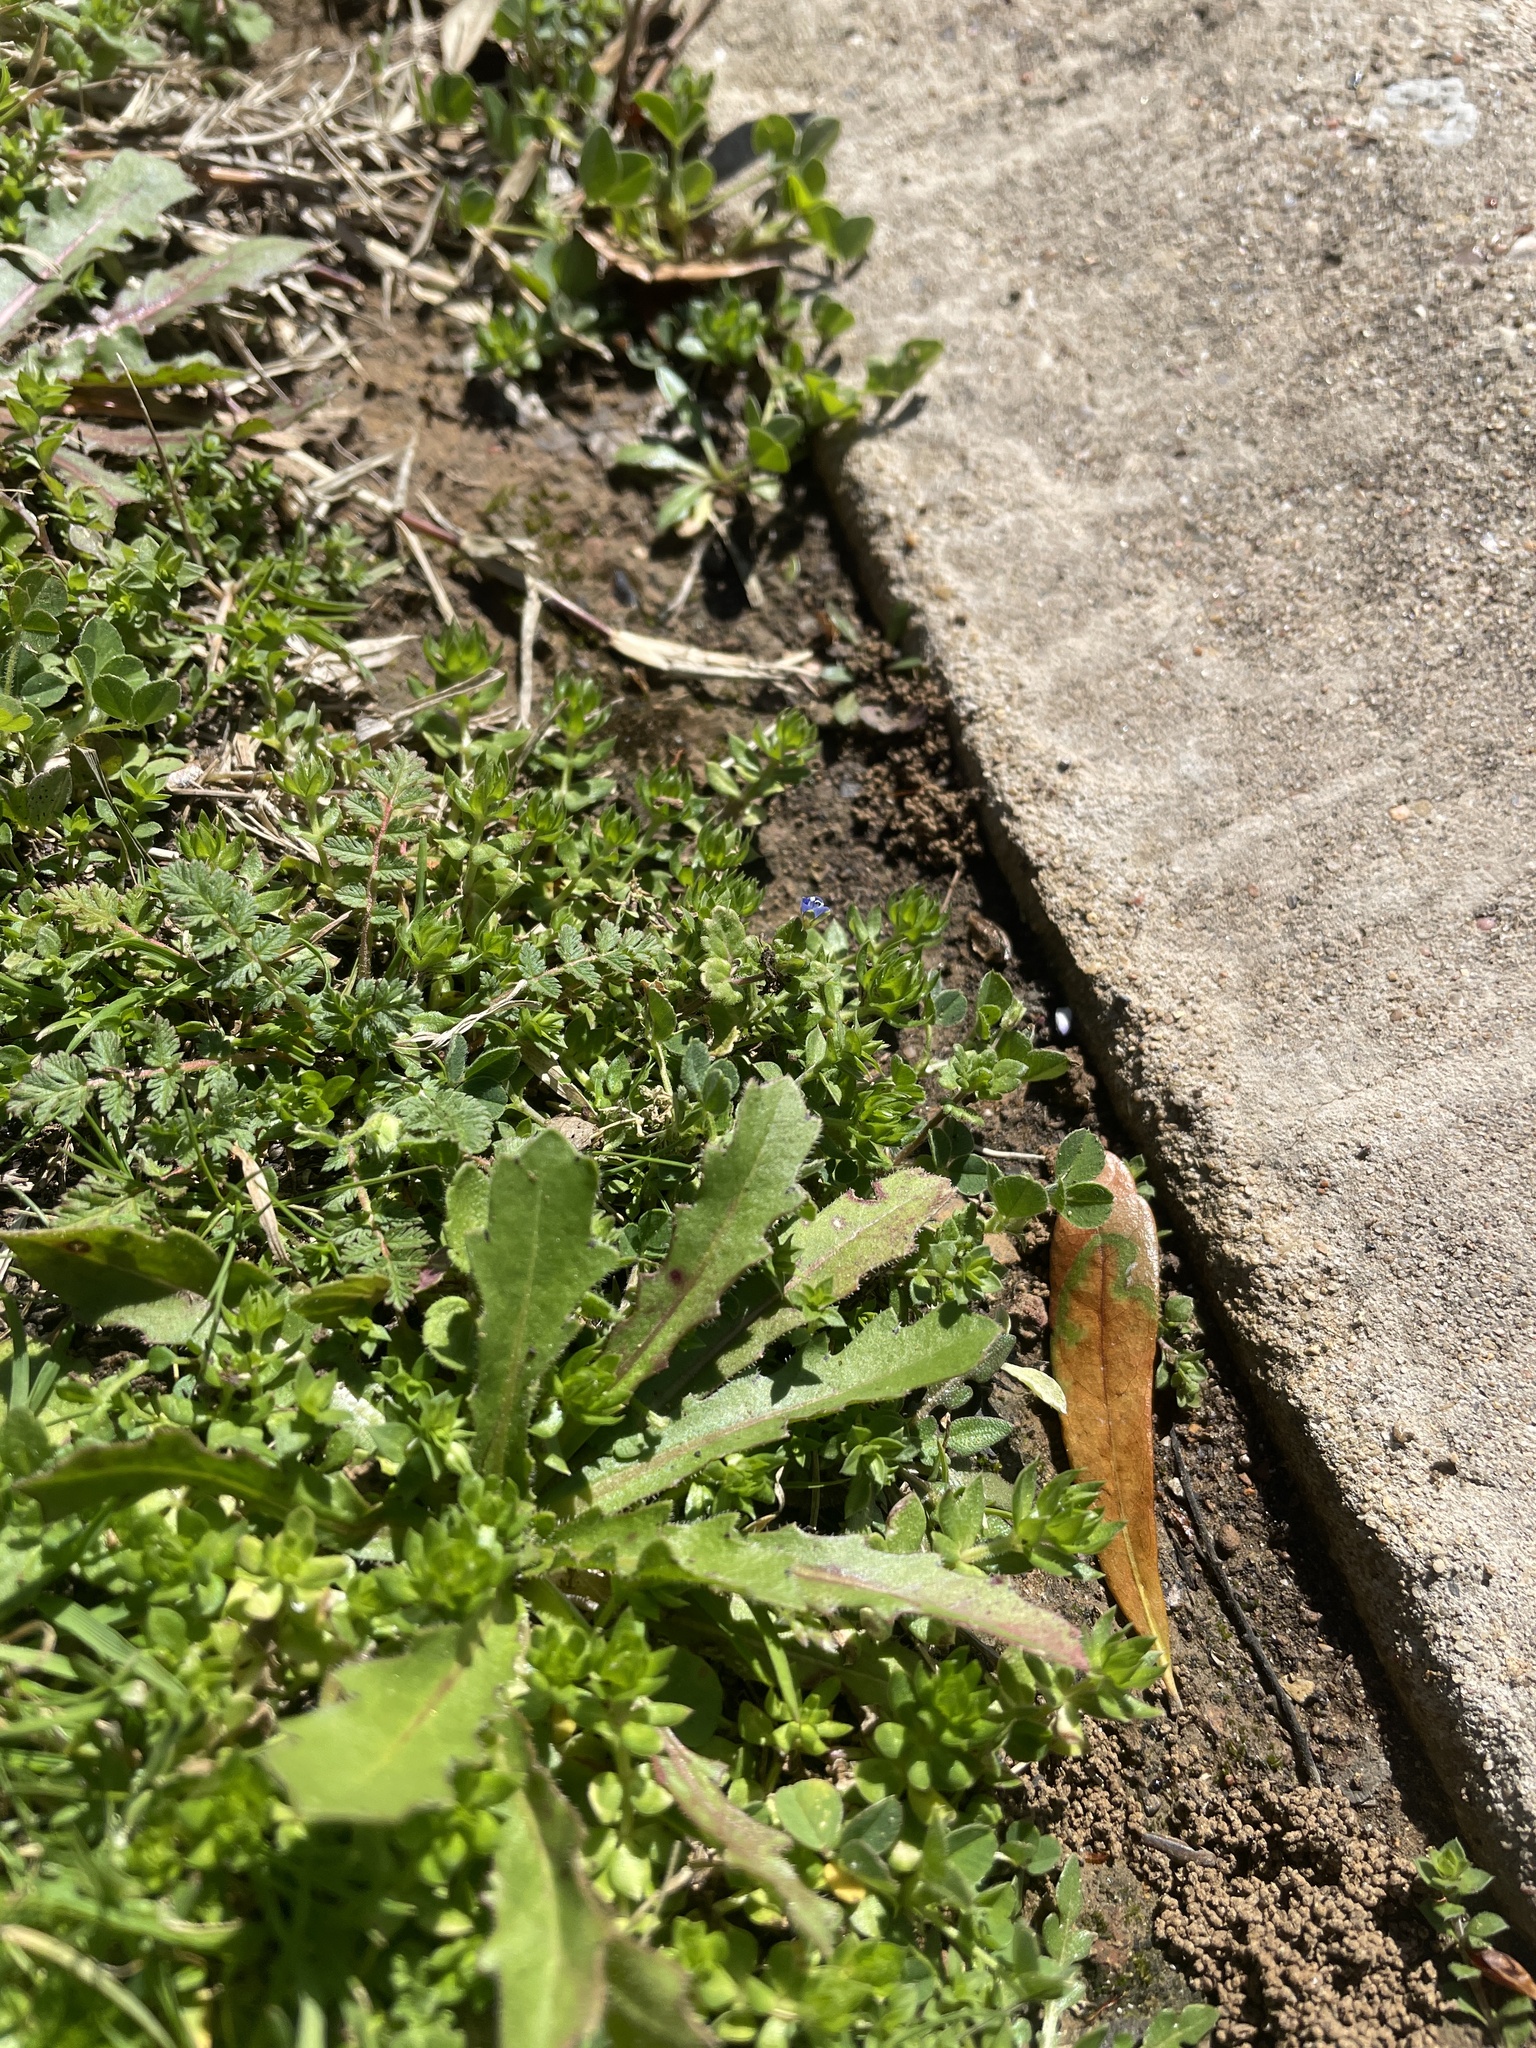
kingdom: Plantae
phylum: Tracheophyta
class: Magnoliopsida
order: Lamiales
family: Plantaginaceae
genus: Veronica
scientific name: Veronica arvensis
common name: Corn speedwell
